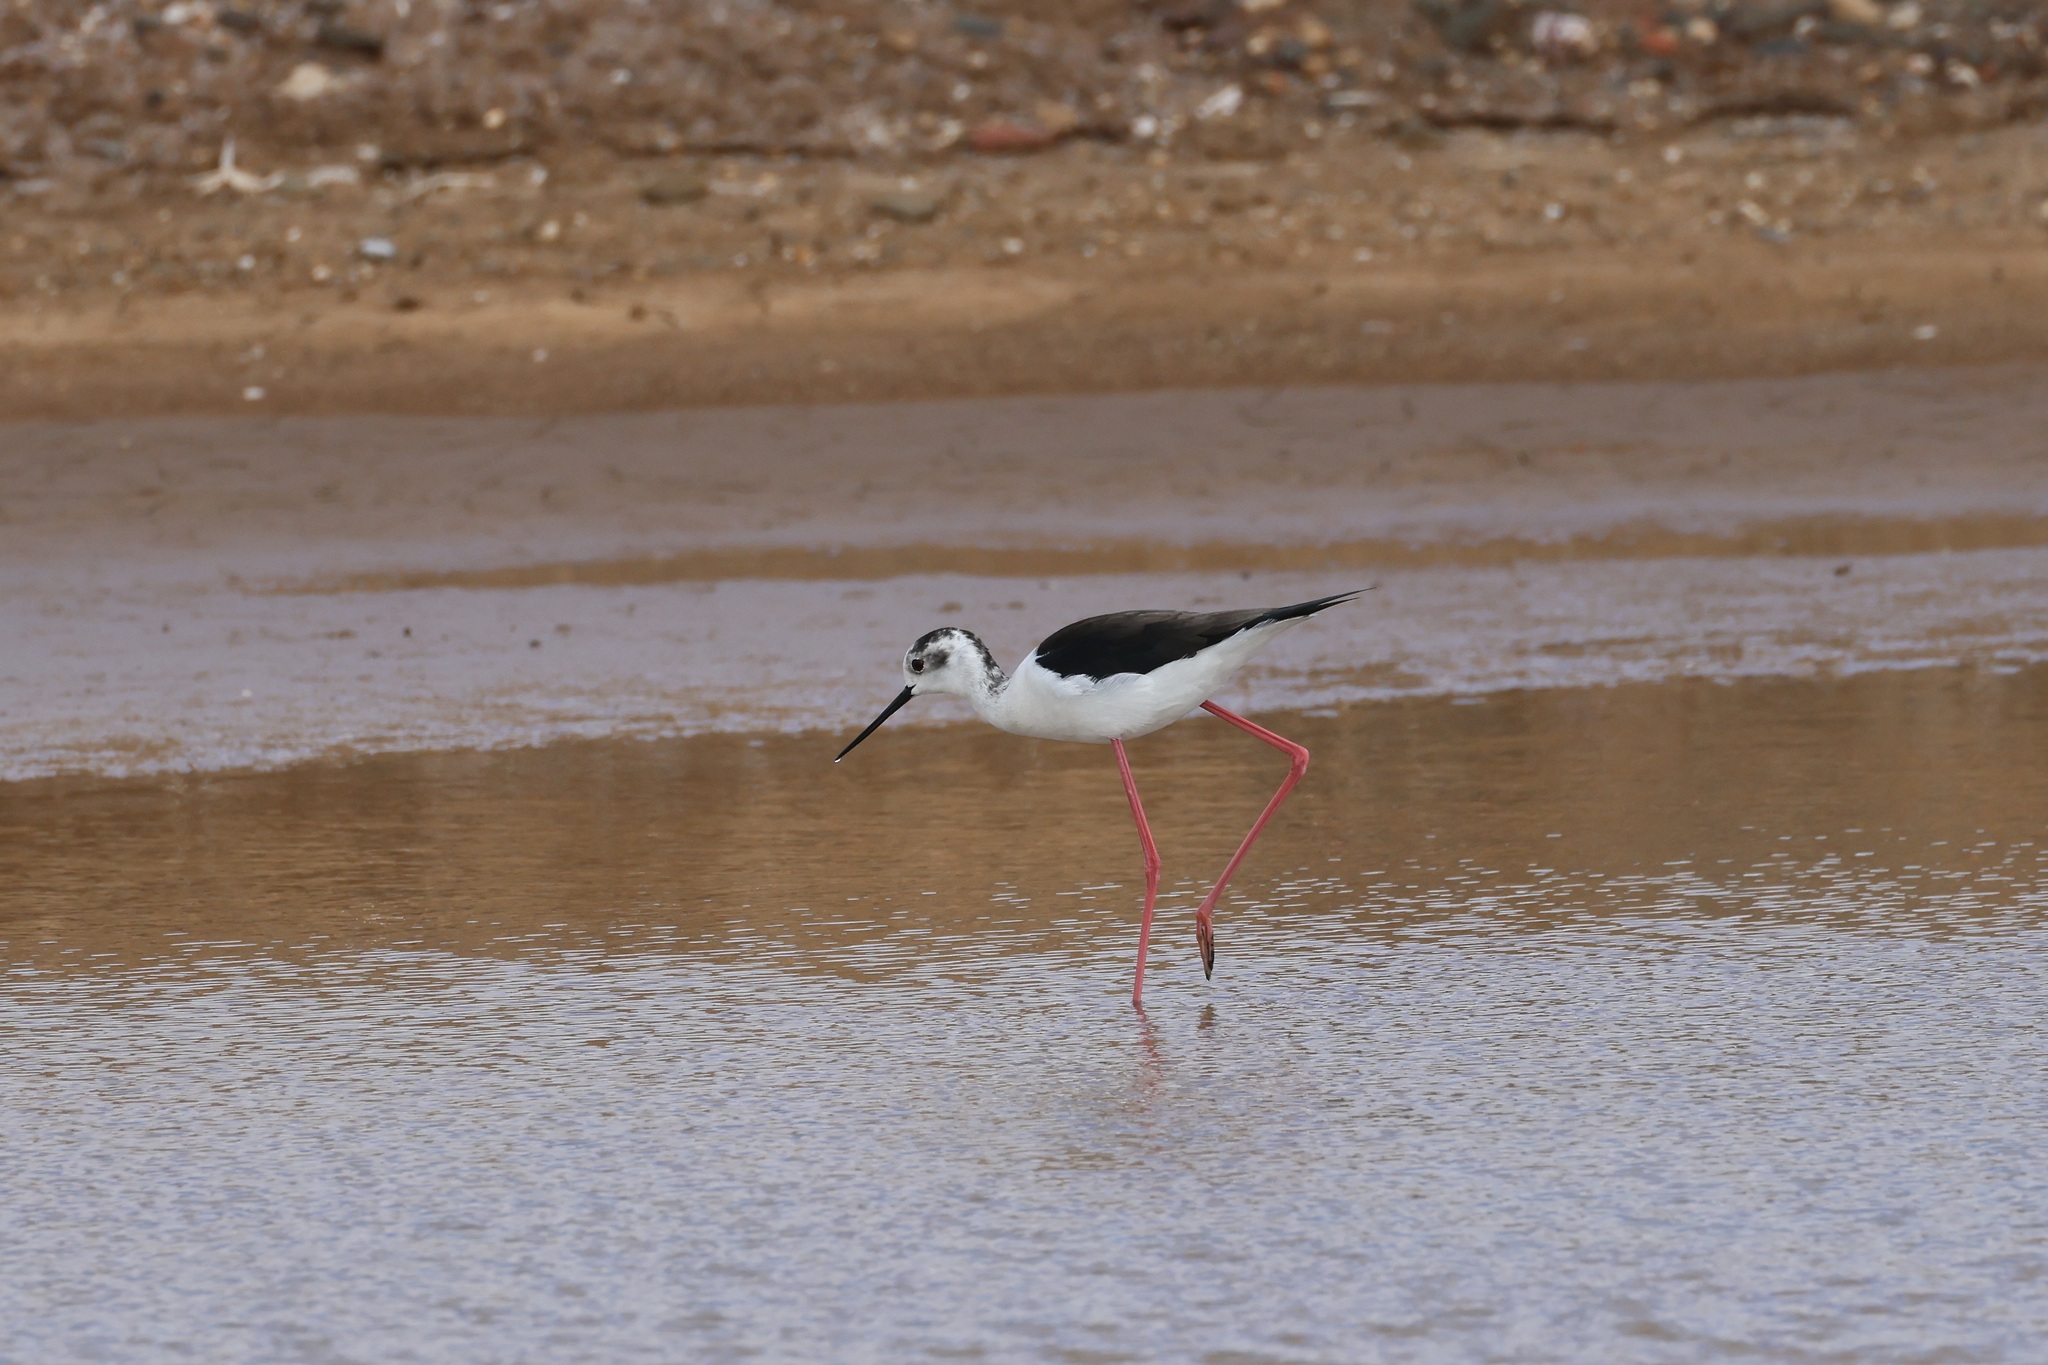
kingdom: Animalia
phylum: Chordata
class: Aves
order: Charadriiformes
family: Recurvirostridae
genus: Himantopus
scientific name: Himantopus himantopus
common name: Black-winged stilt
